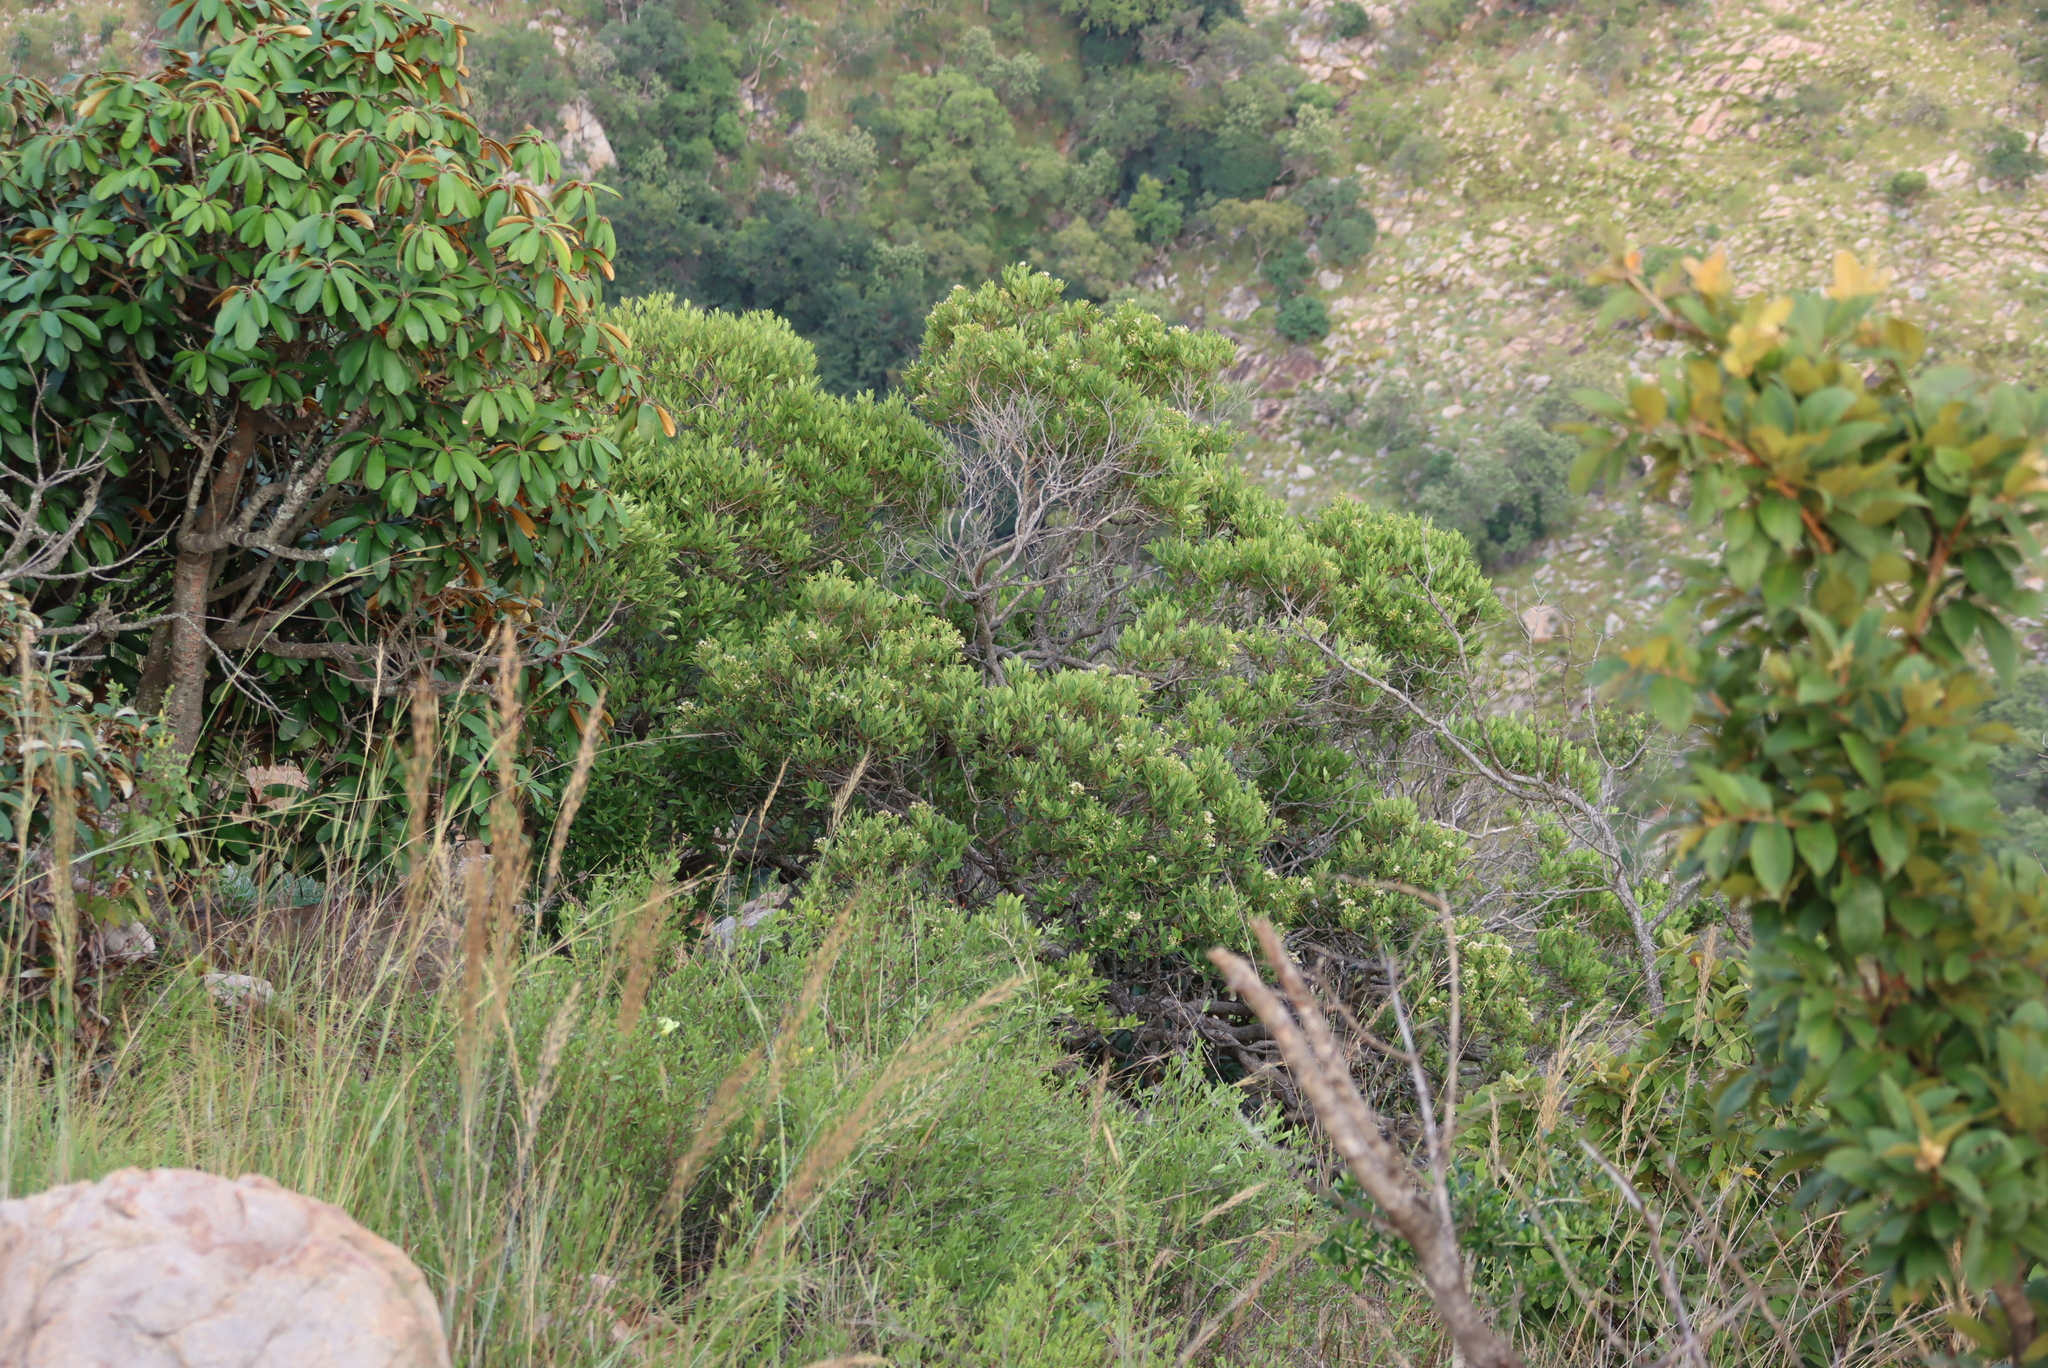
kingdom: Plantae
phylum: Tracheophyta
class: Magnoliopsida
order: Myrtales
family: Myrtaceae
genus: Syzygium
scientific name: Syzygium legatii
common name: Mountain waterberry
